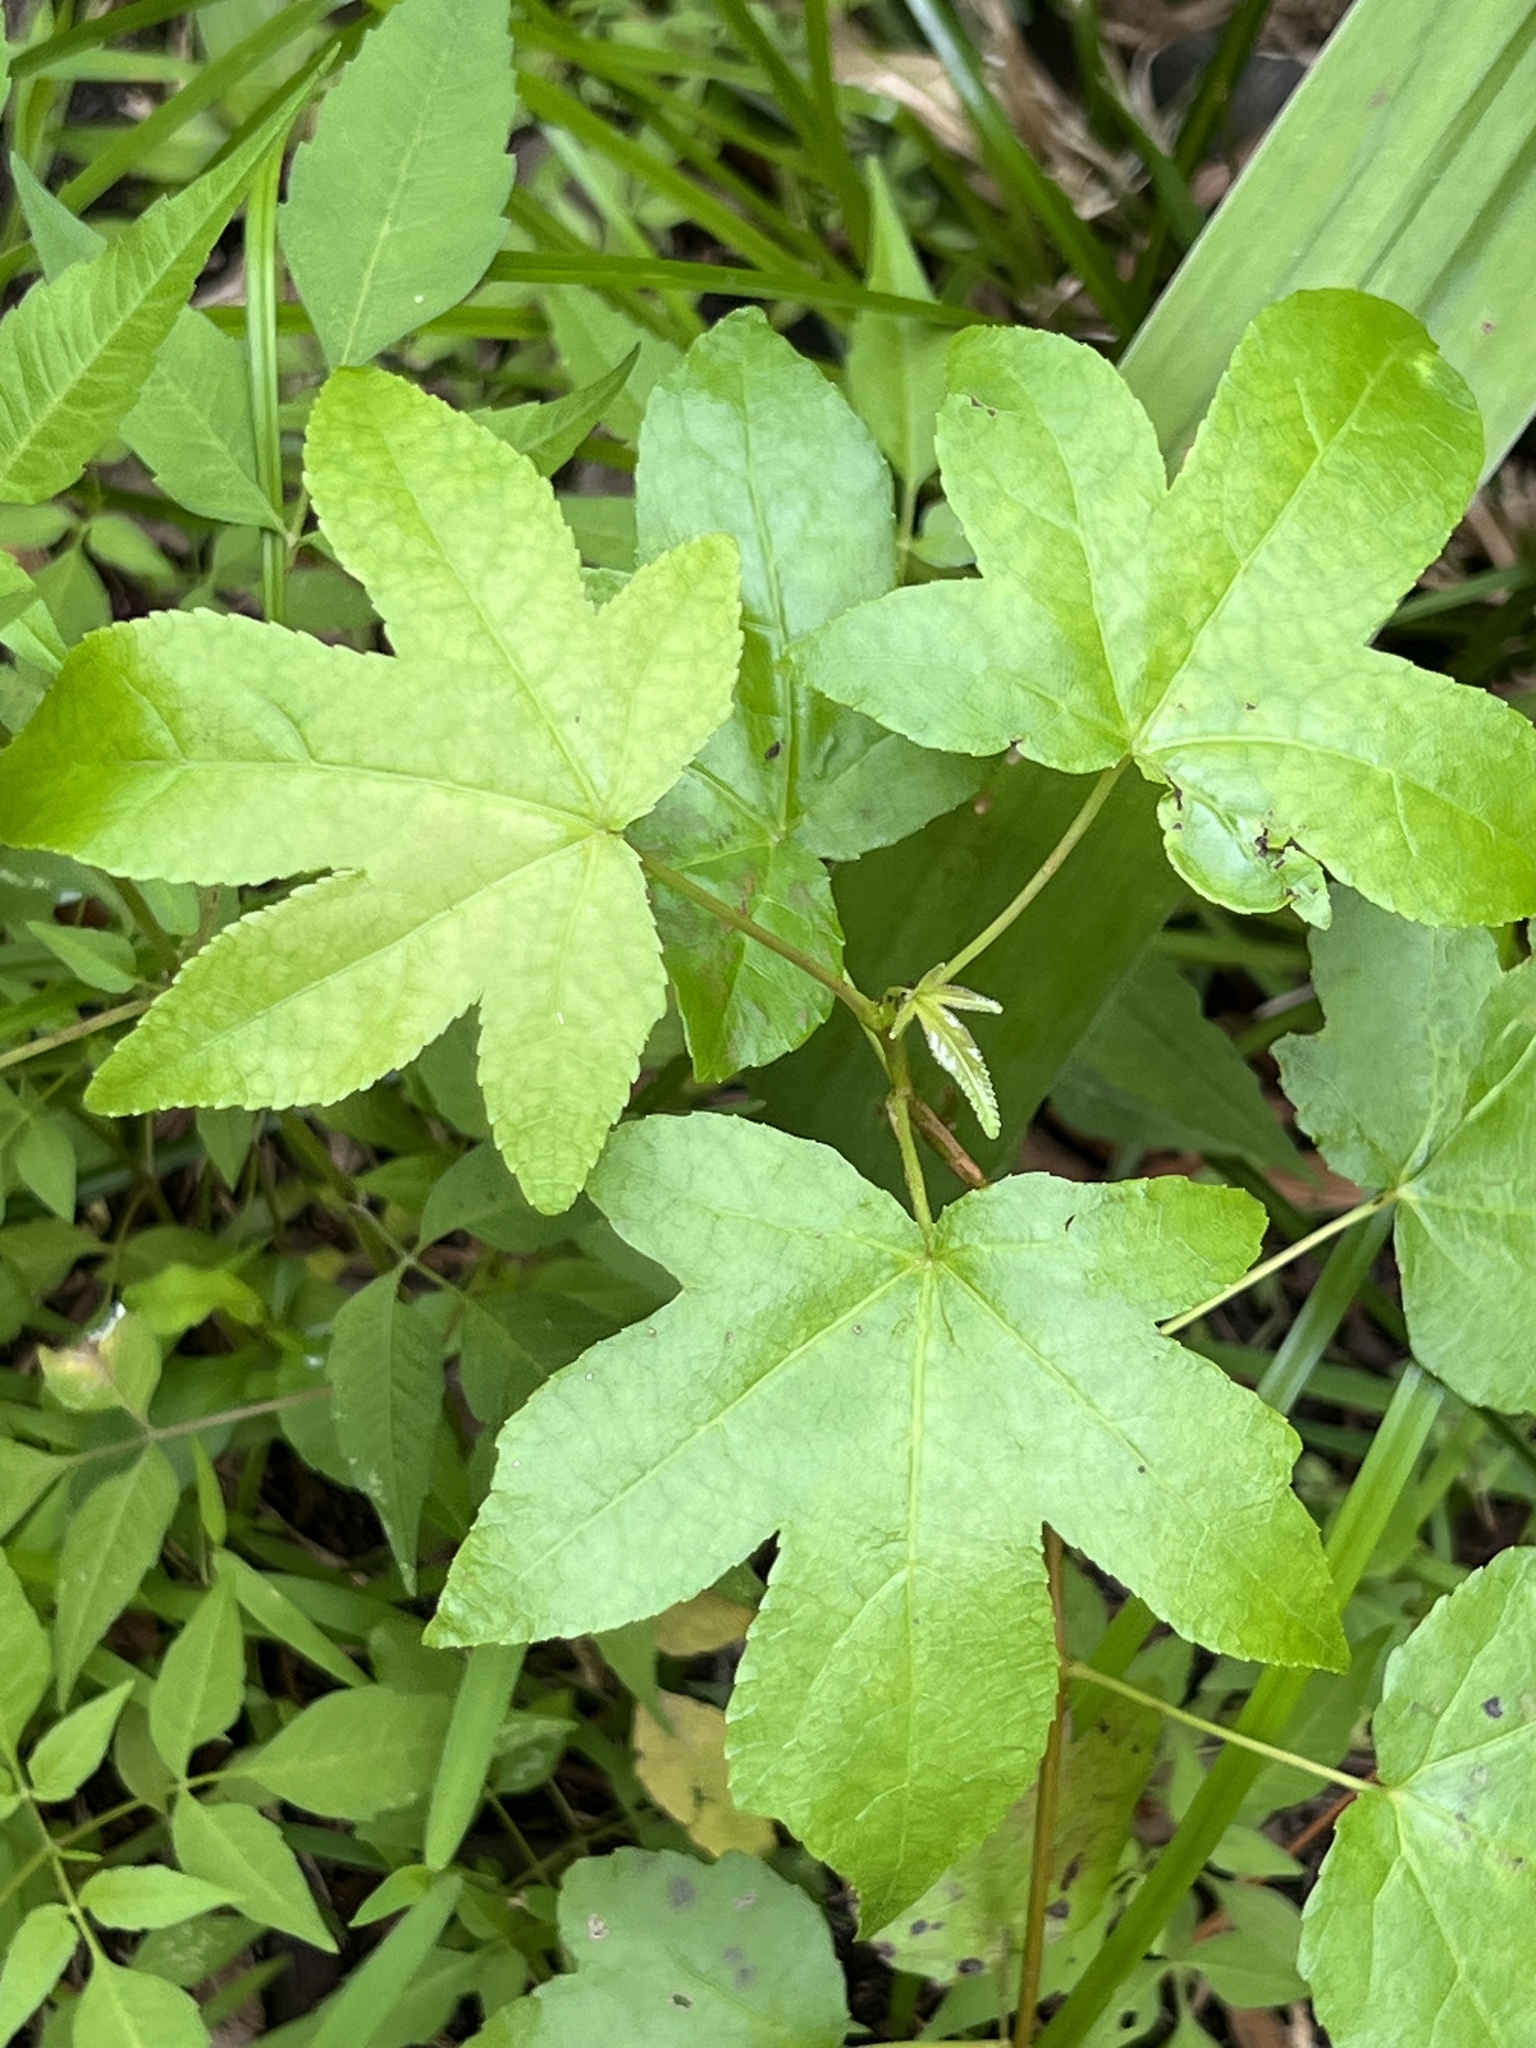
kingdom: Plantae
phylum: Tracheophyta
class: Magnoliopsida
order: Saxifragales
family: Altingiaceae
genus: Liquidambar
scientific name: Liquidambar styraciflua
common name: Sweet gum
